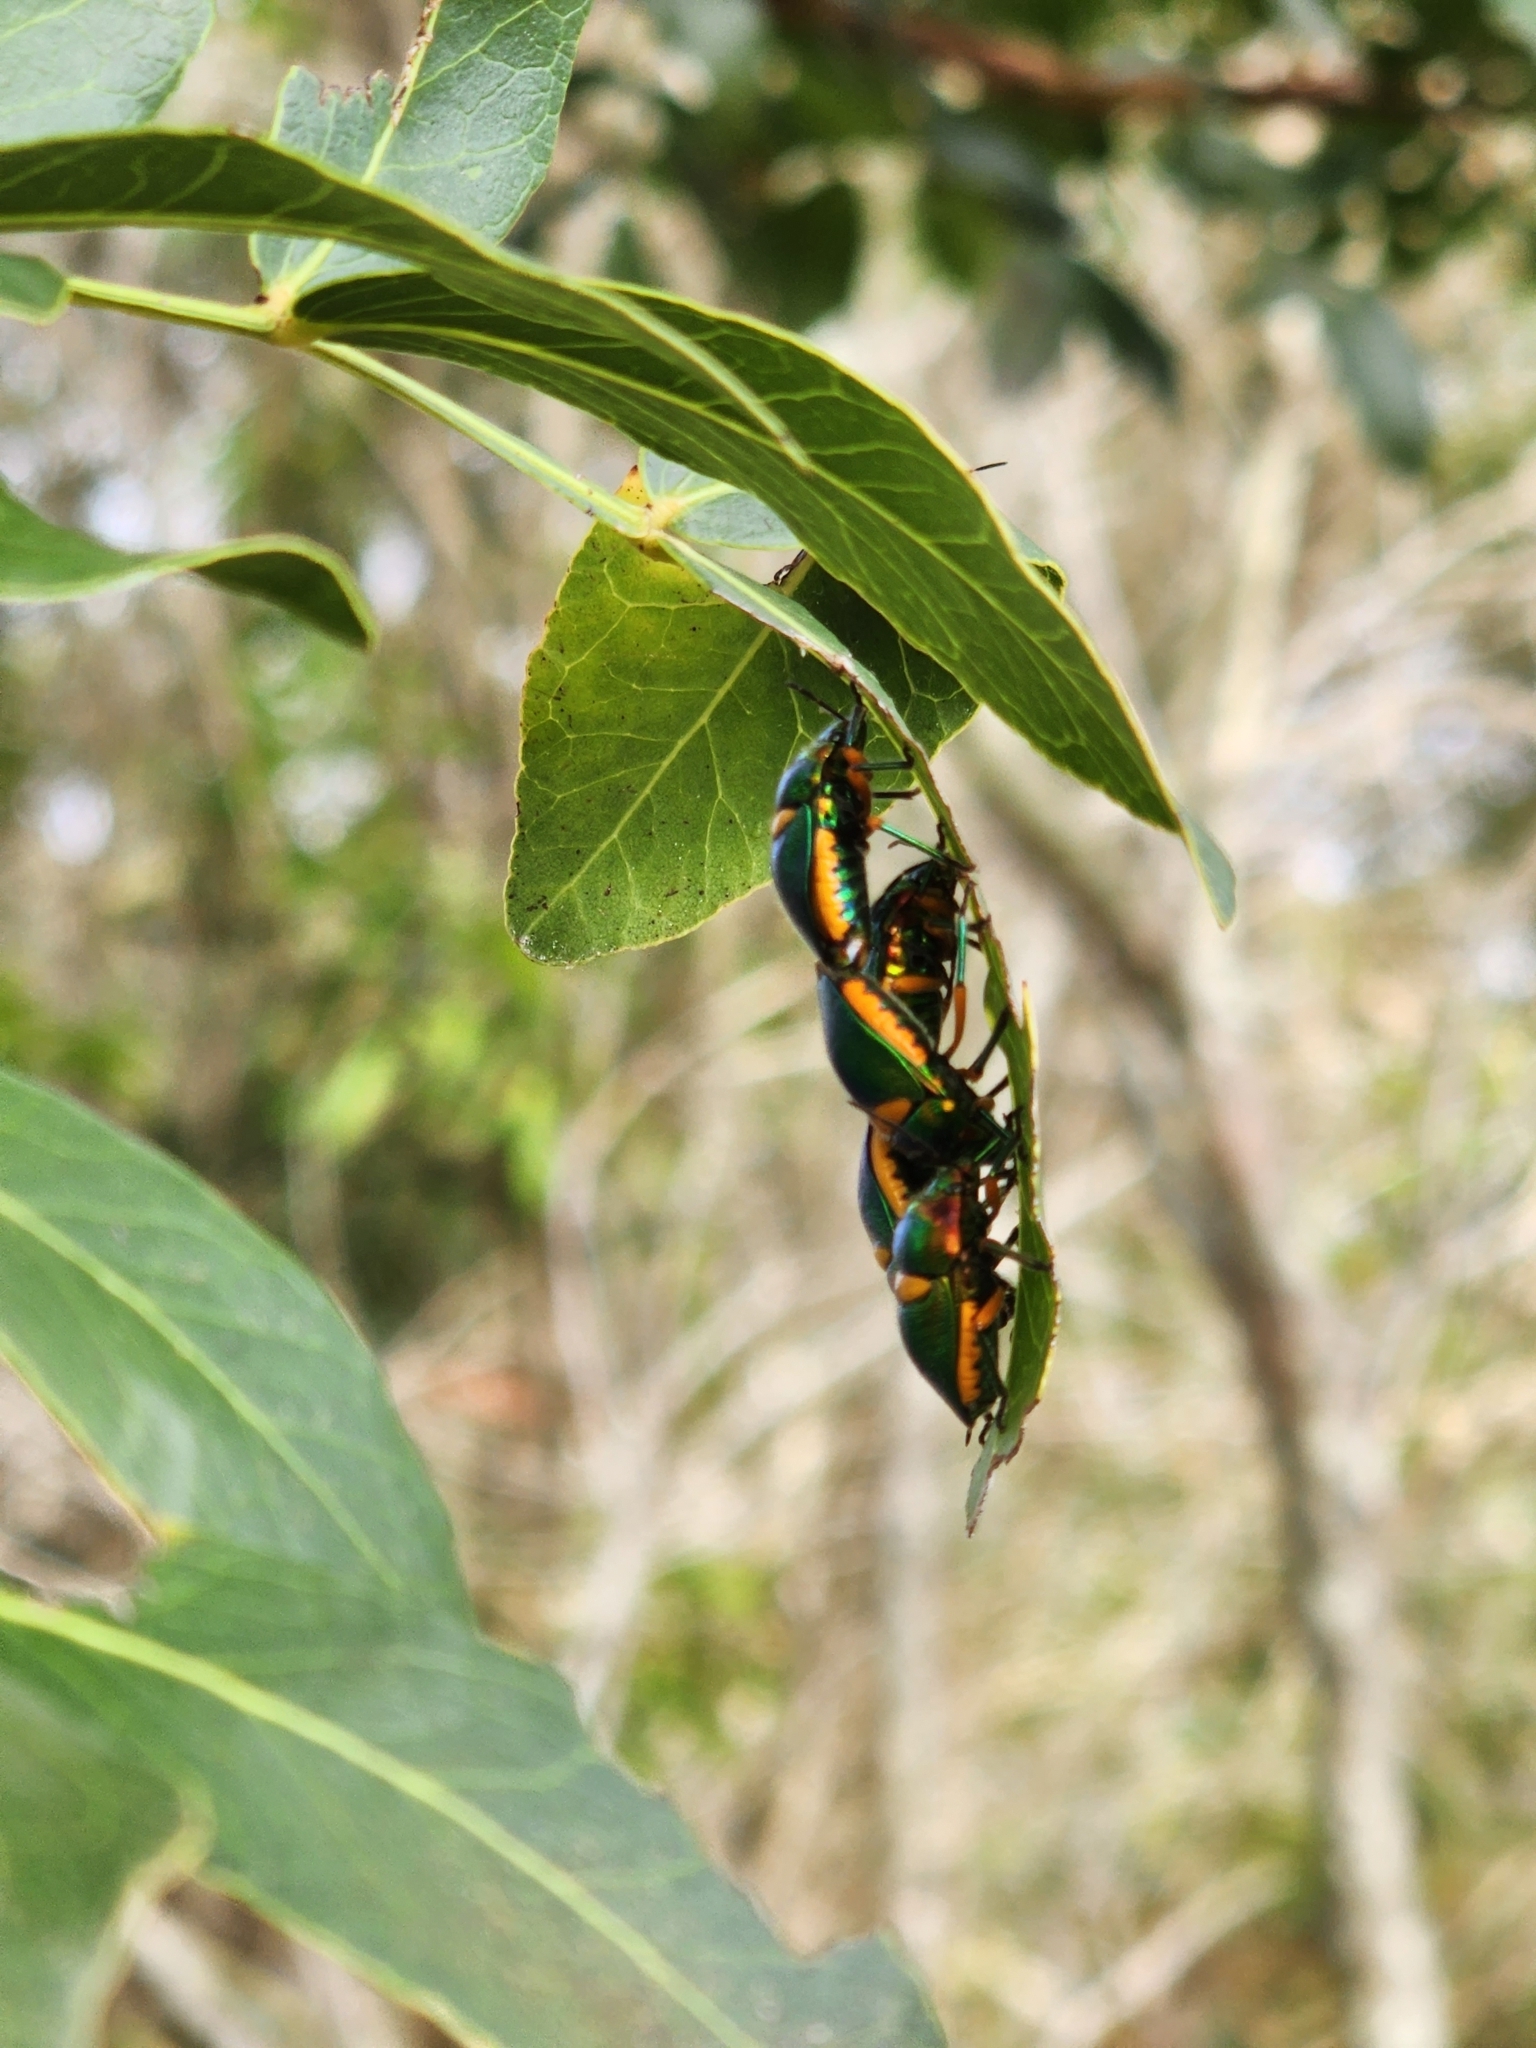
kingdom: Animalia
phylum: Arthropoda
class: Insecta
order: Hemiptera
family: Scutelleridae
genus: Lampromicra
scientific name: Lampromicra senator
